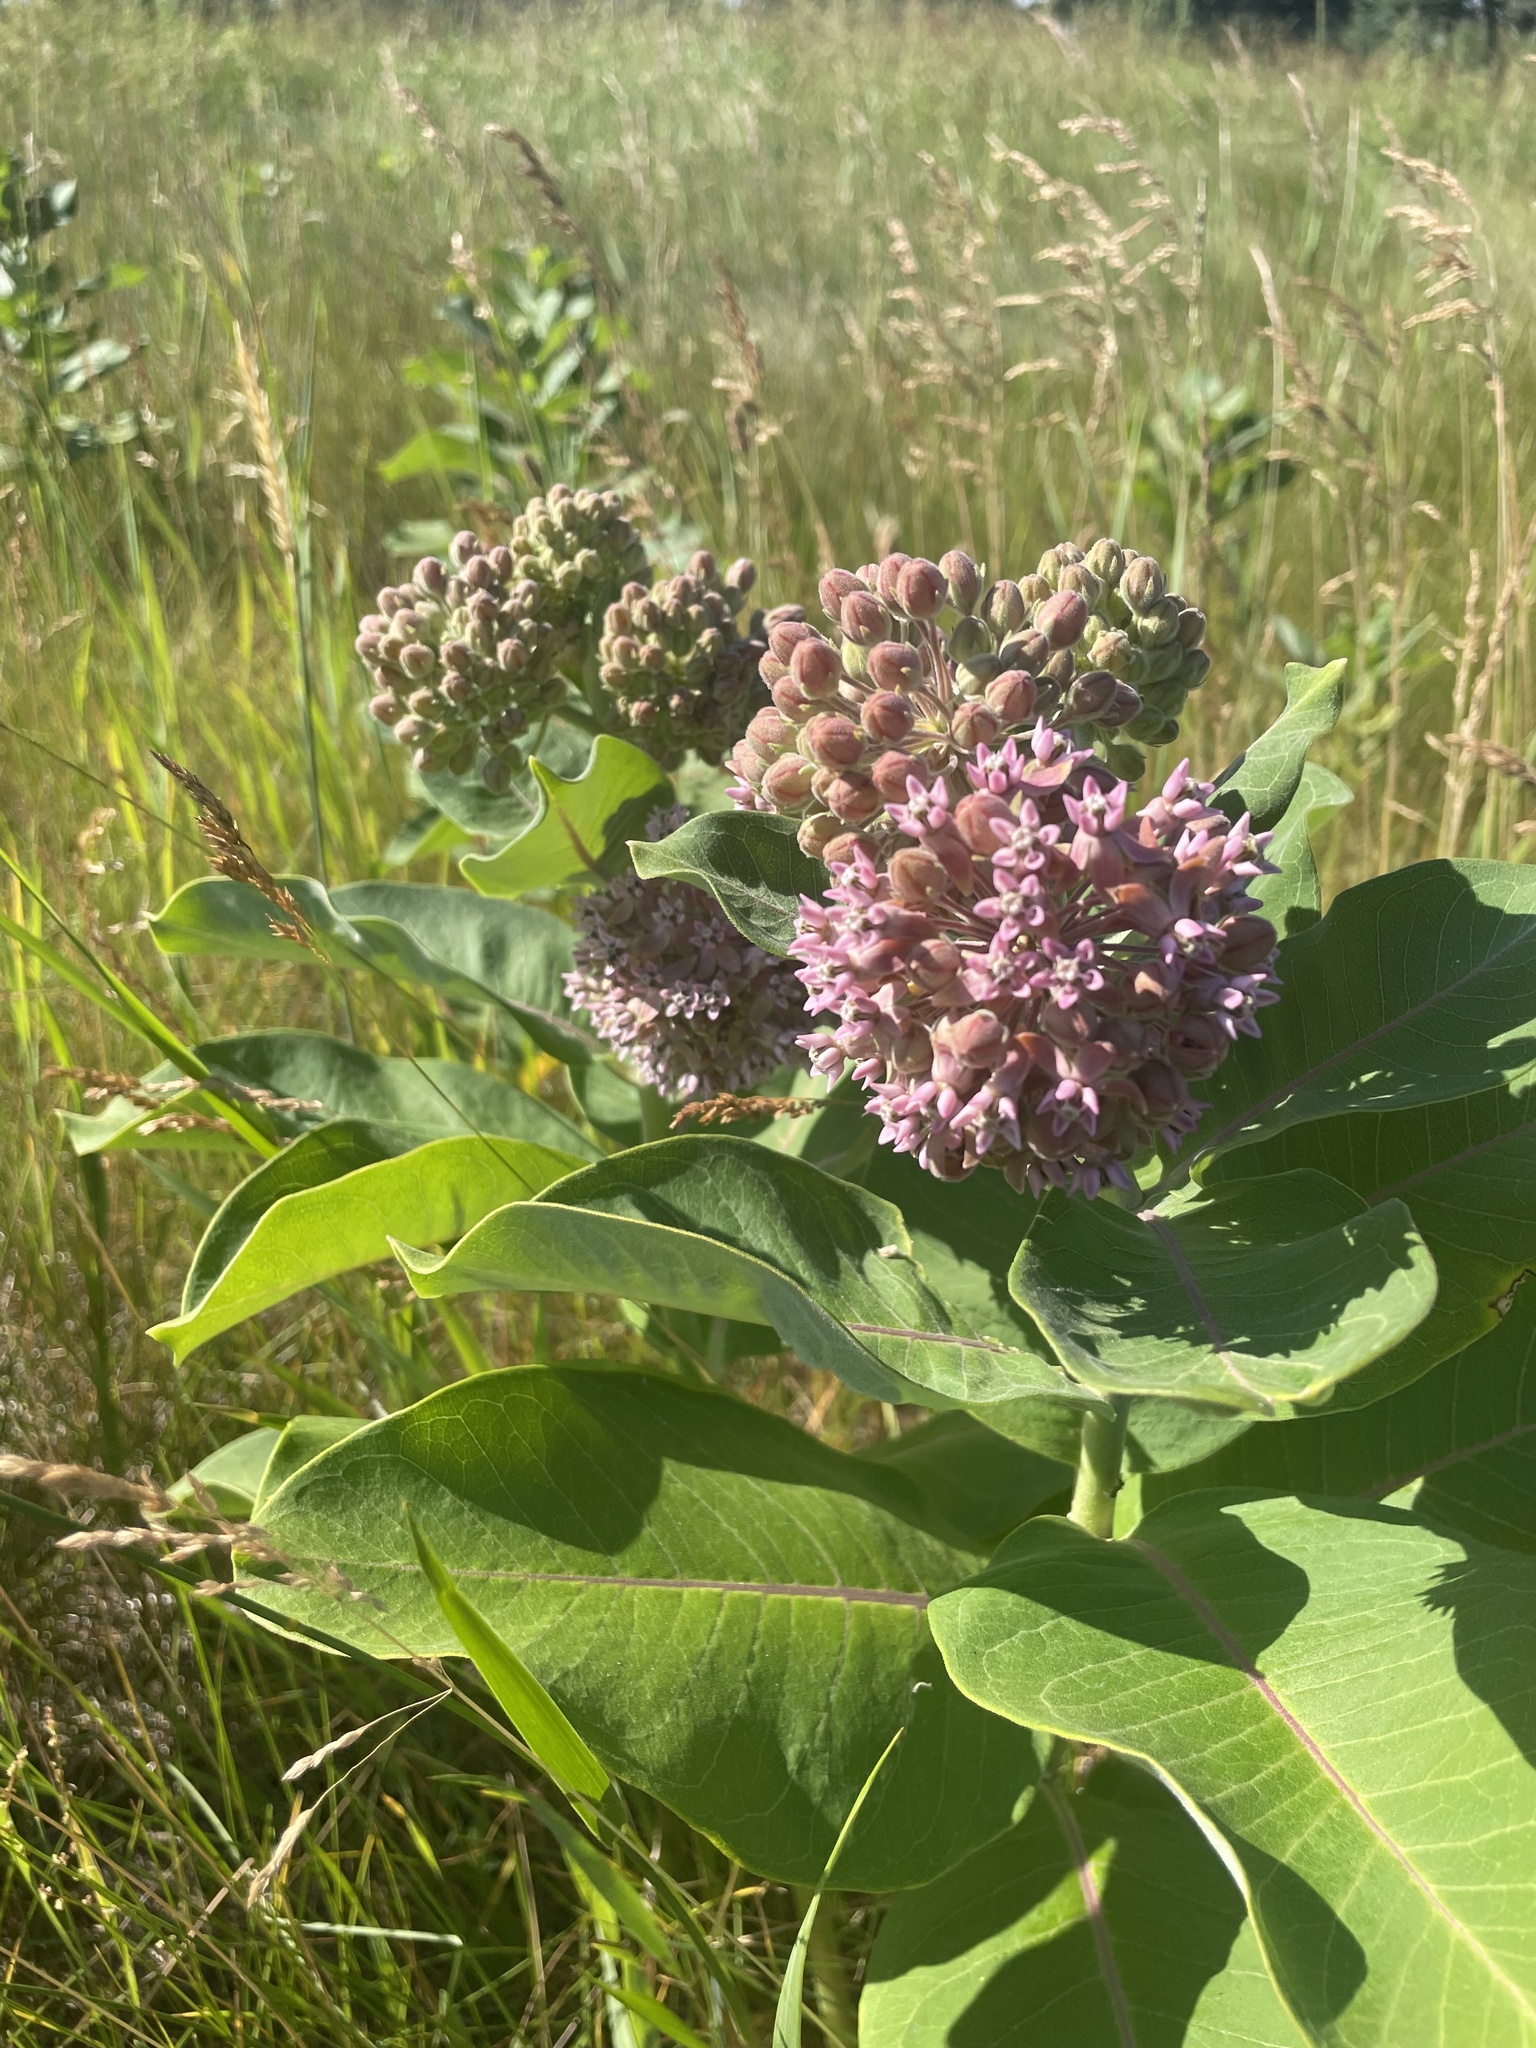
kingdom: Plantae
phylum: Tracheophyta
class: Magnoliopsida
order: Gentianales
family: Apocynaceae
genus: Asclepias
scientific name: Asclepias syriaca
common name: Common milkweed
